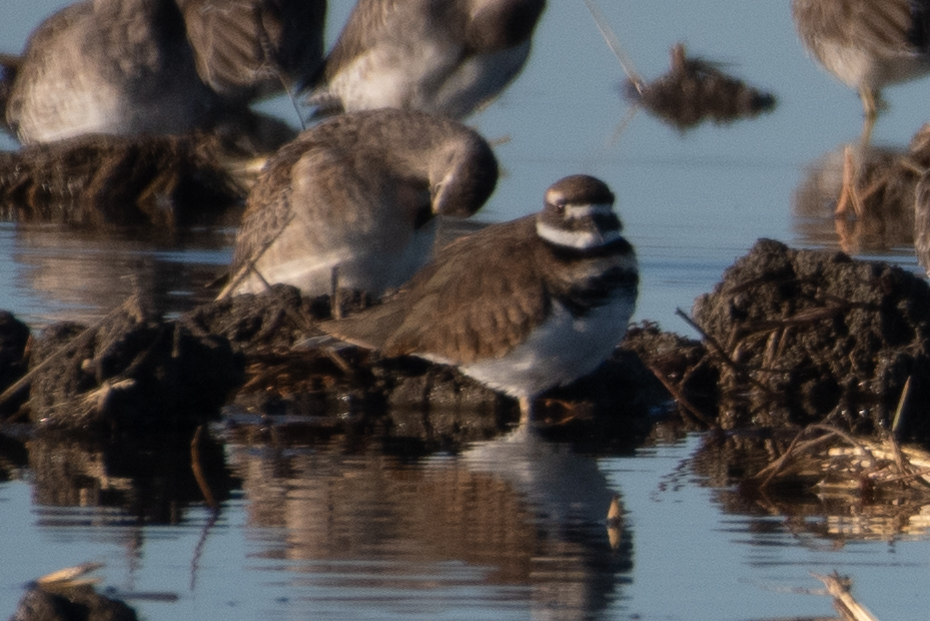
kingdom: Animalia
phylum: Chordata
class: Aves
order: Charadriiformes
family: Charadriidae
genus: Charadrius
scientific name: Charadrius vociferus
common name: Killdeer
